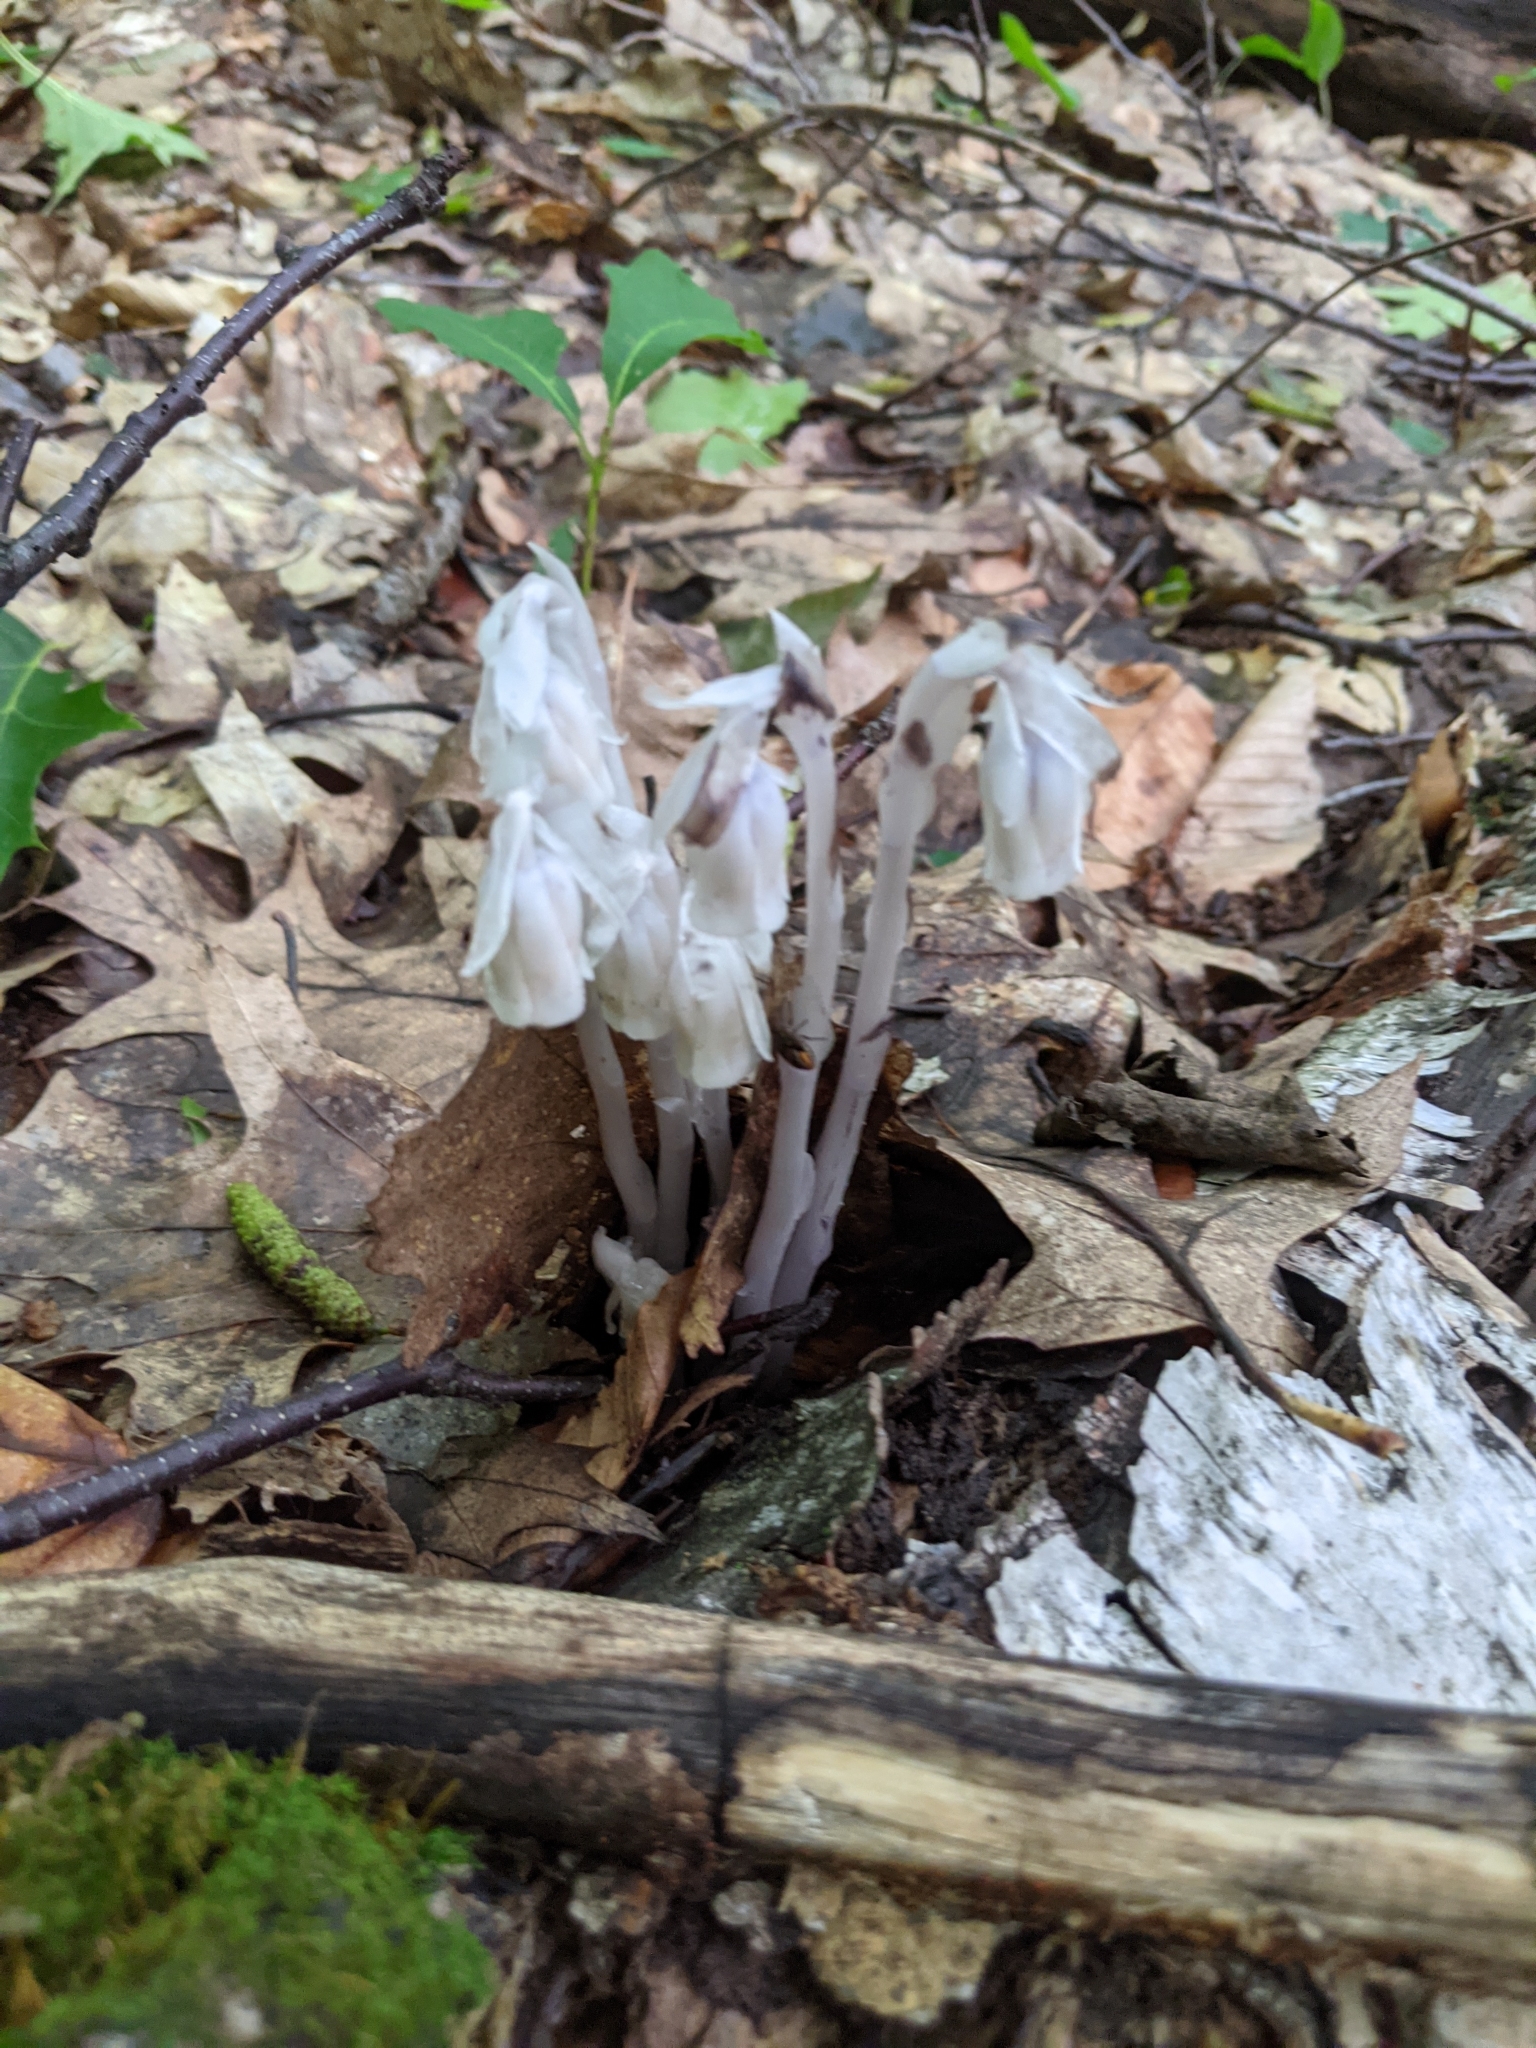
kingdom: Plantae
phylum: Tracheophyta
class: Magnoliopsida
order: Ericales
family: Ericaceae
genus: Monotropa
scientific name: Monotropa uniflora
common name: Convulsion root
